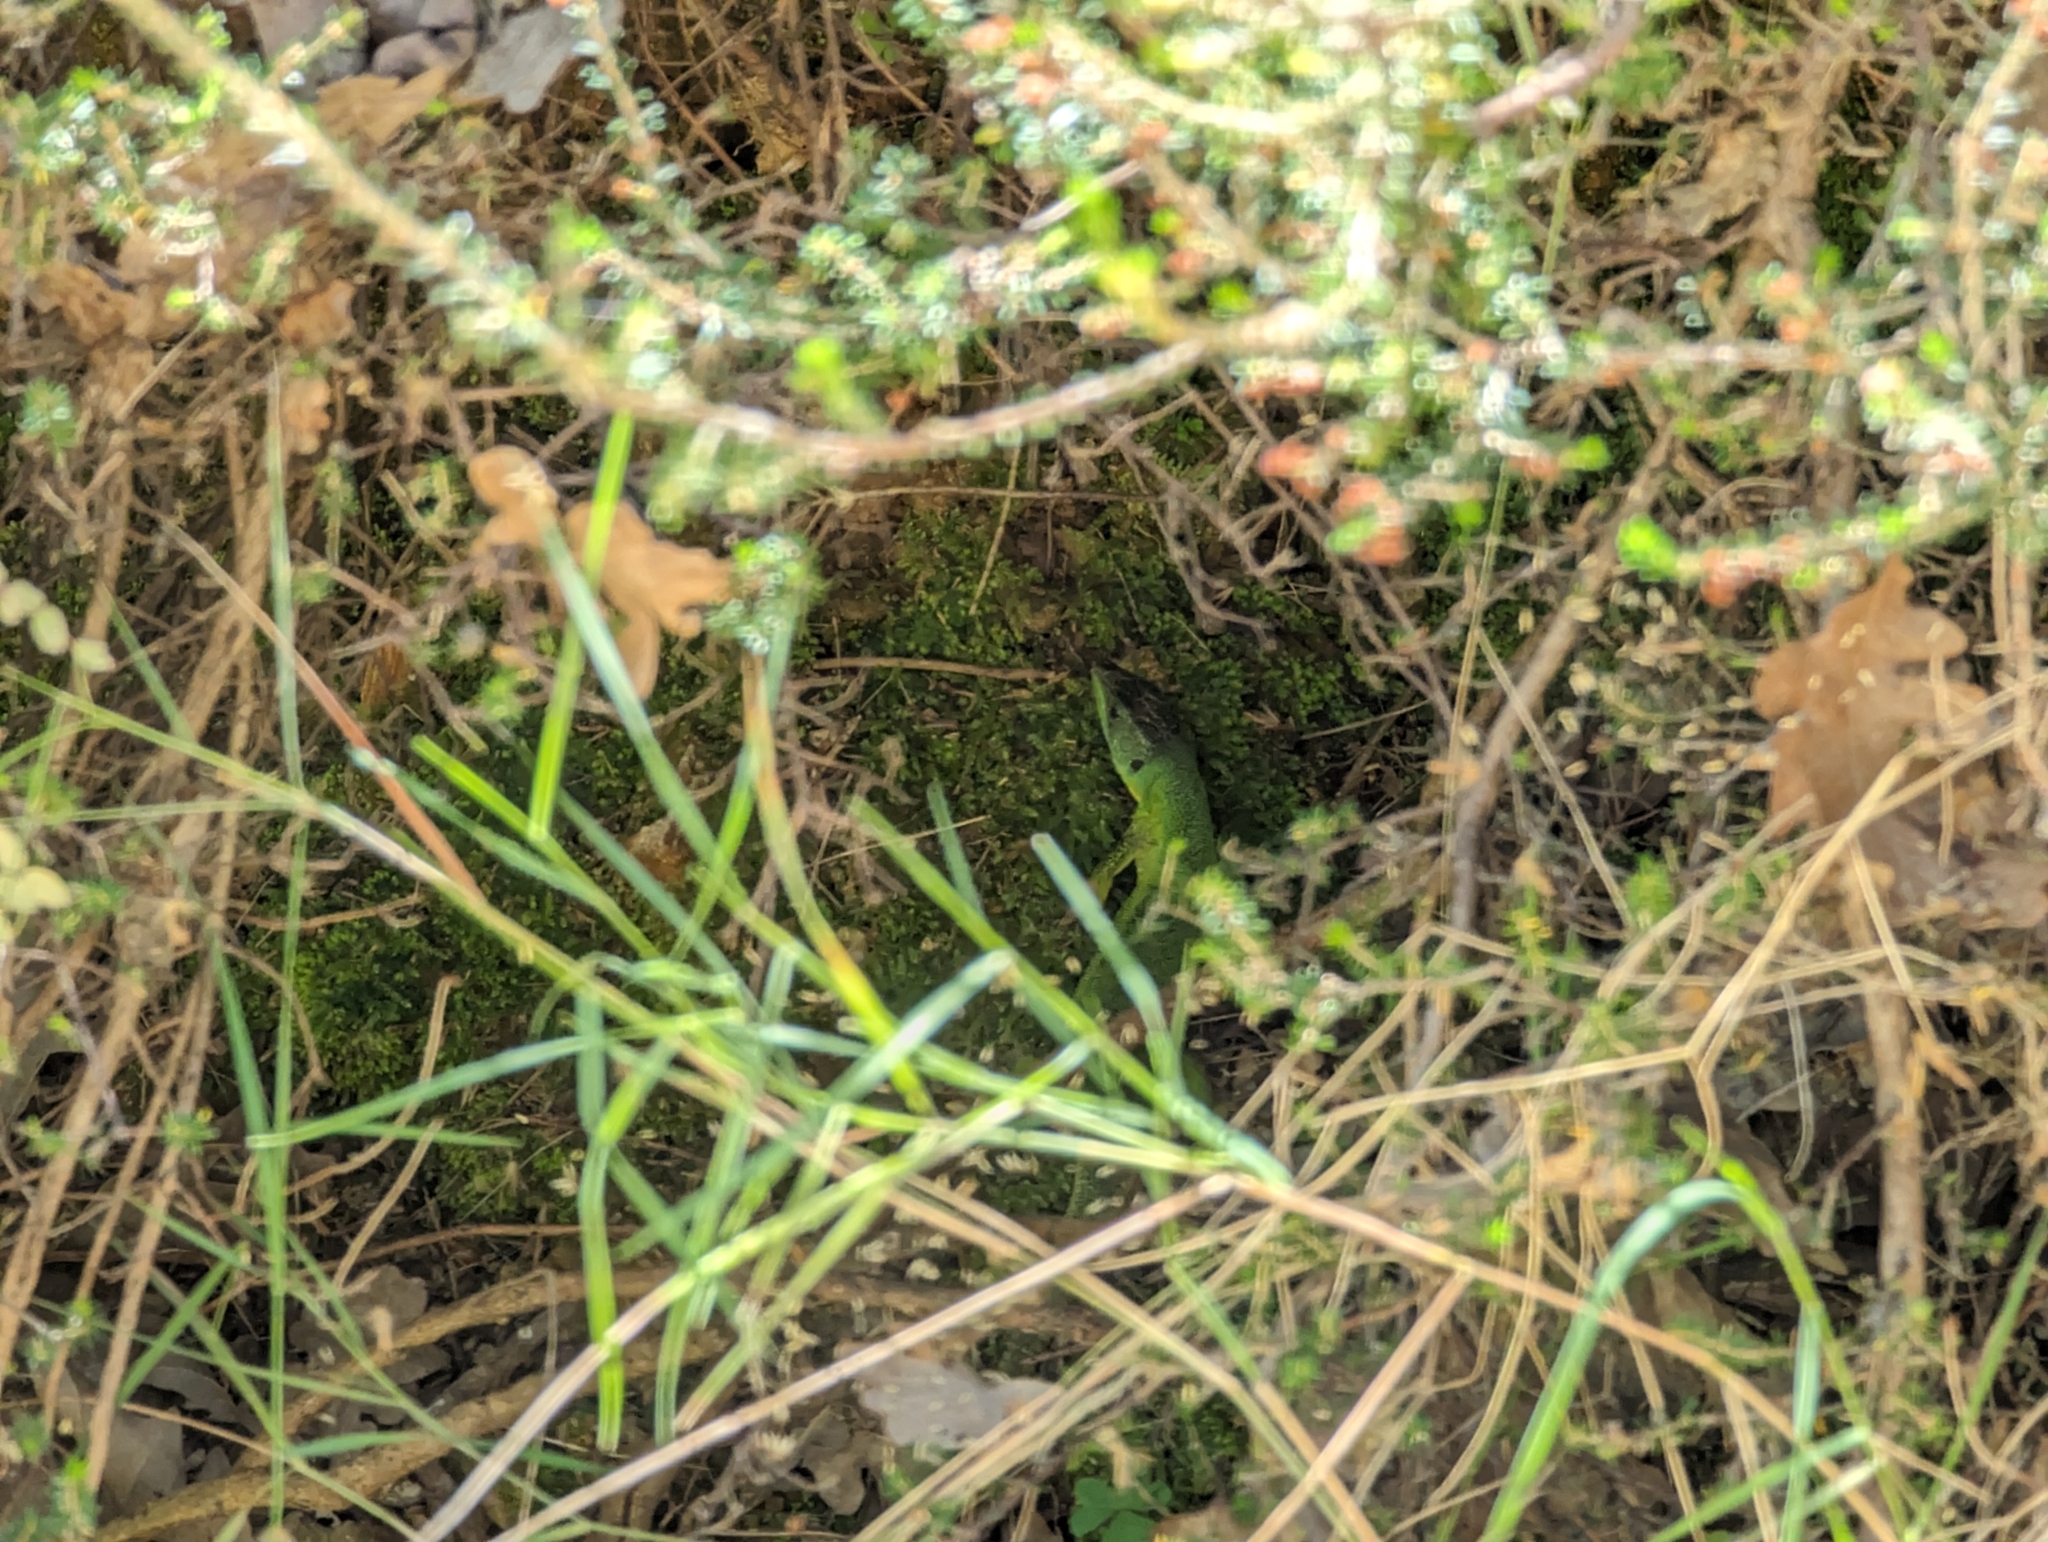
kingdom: Animalia
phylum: Chordata
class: Squamata
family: Lacertidae
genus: Lacerta
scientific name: Lacerta trilineata
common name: Balkan green lizard
